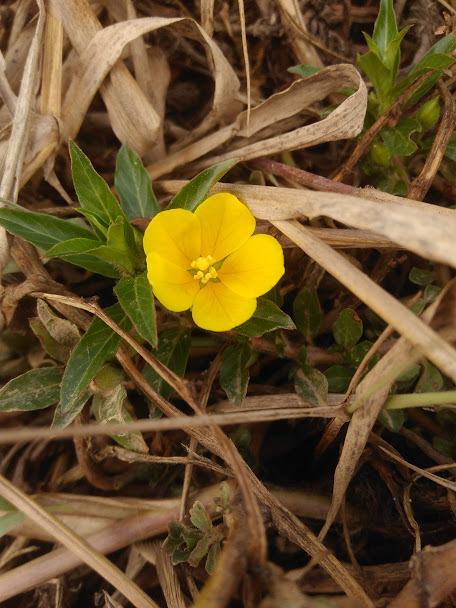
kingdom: Plantae
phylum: Tracheophyta
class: Magnoliopsida
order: Myrtales
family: Onagraceae
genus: Ludwigia
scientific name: Ludwigia peploides
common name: Floating primrose-willow
